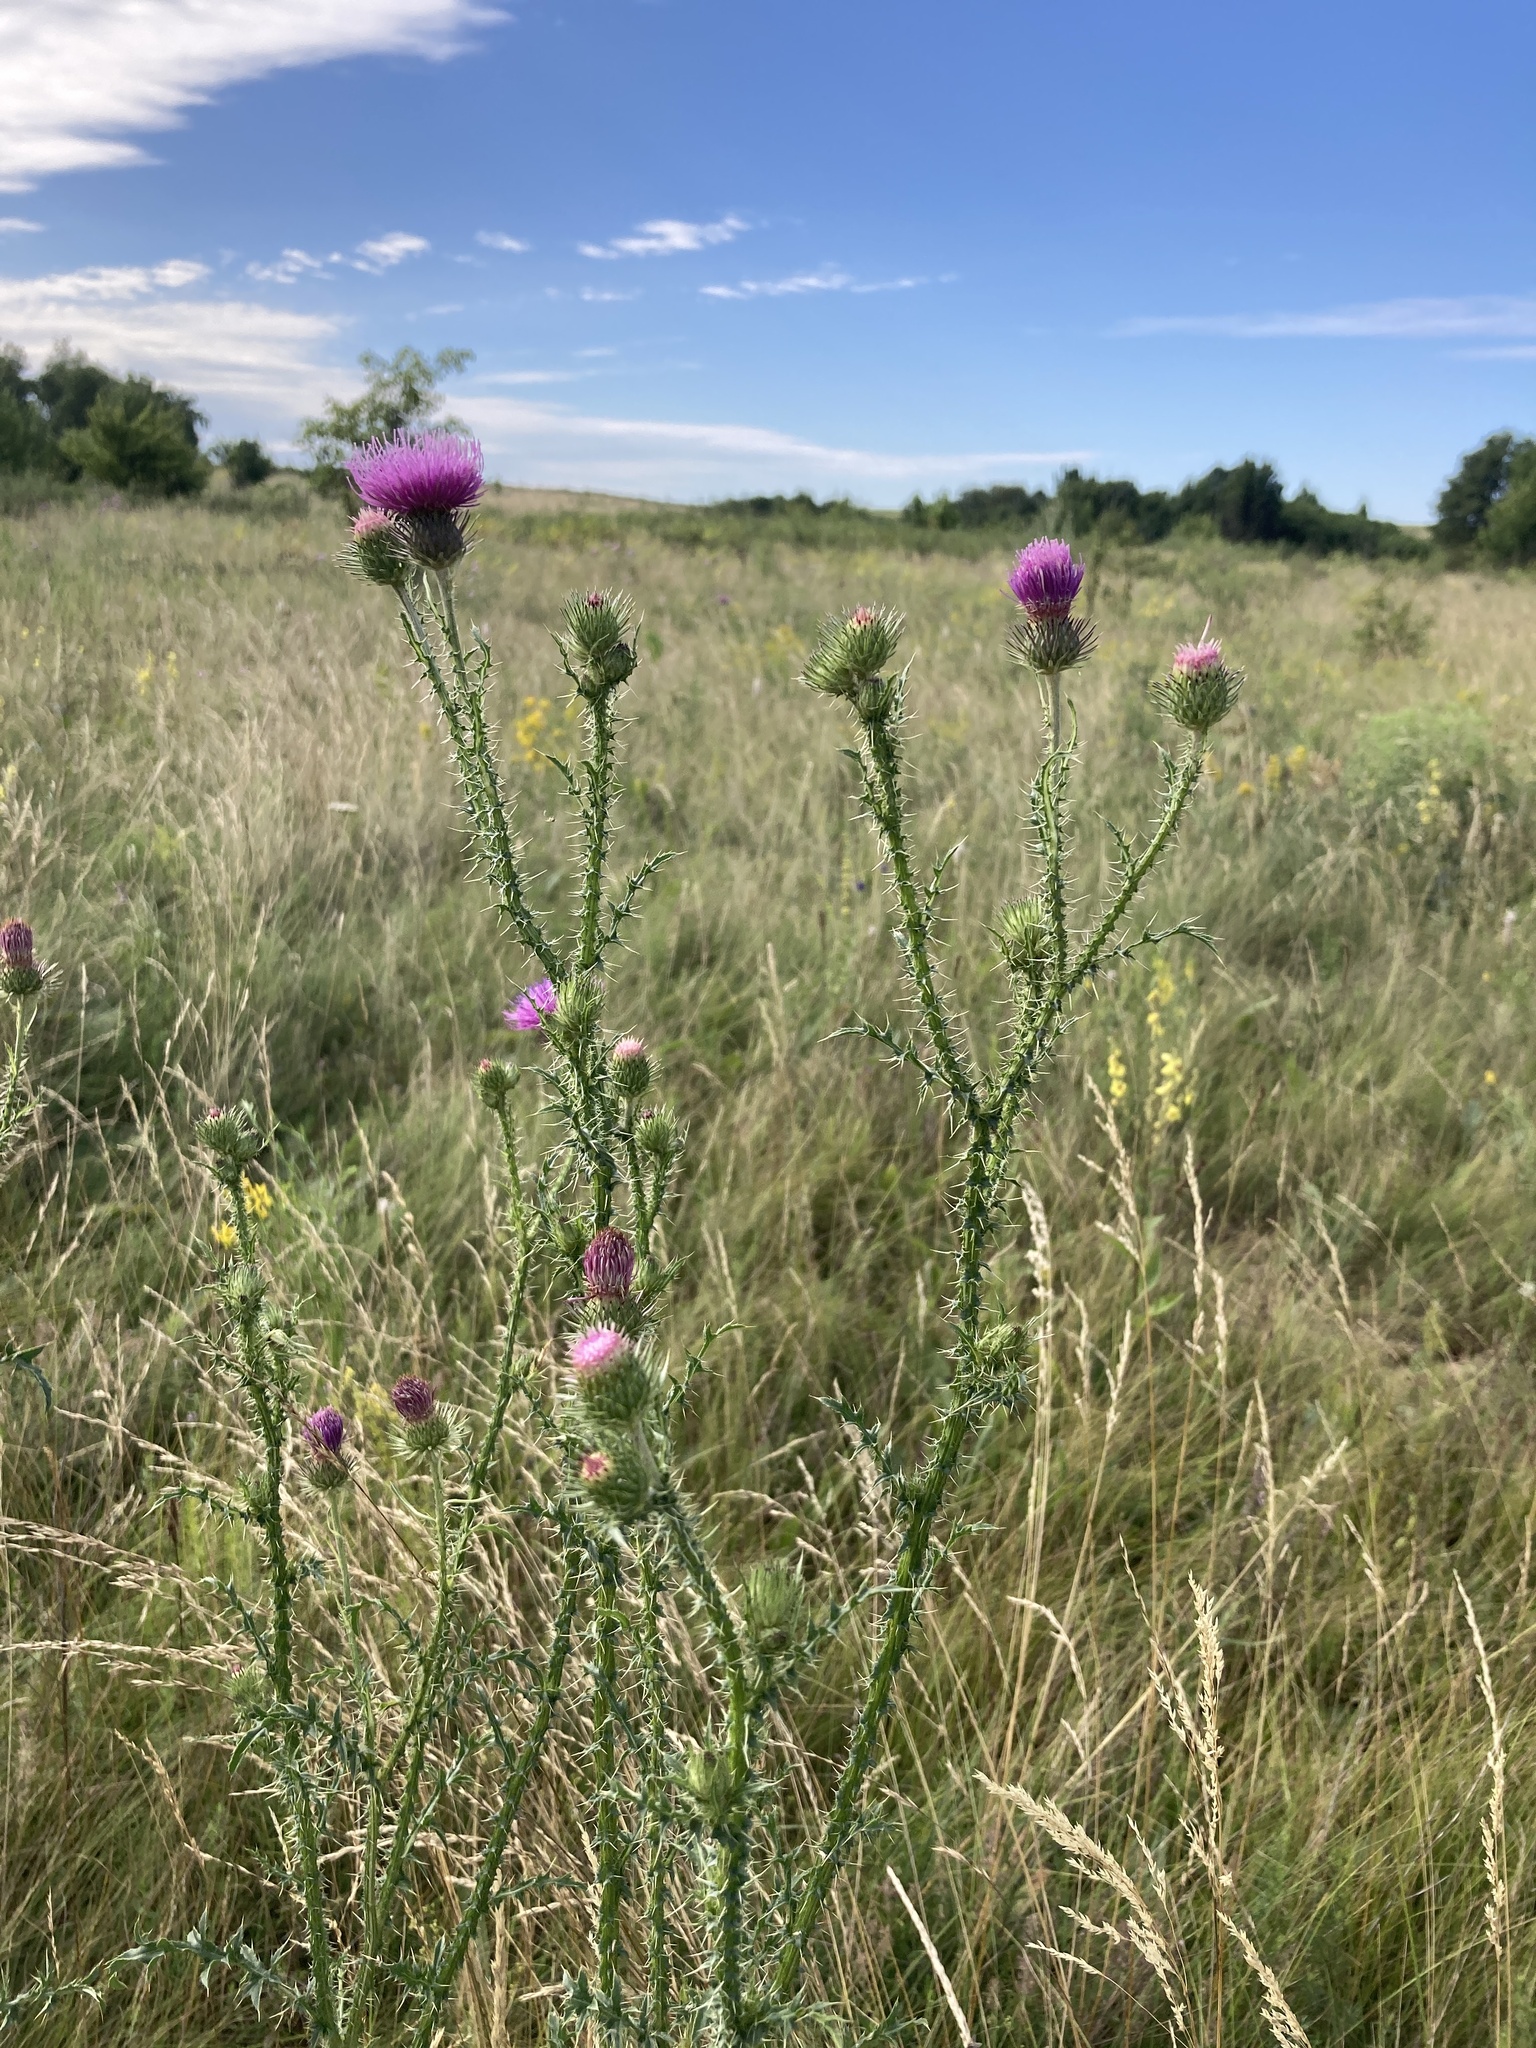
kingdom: Plantae
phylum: Tracheophyta
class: Magnoliopsida
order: Asterales
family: Asteraceae
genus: Carduus
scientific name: Carduus acanthoides
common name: Plumeless thistle
